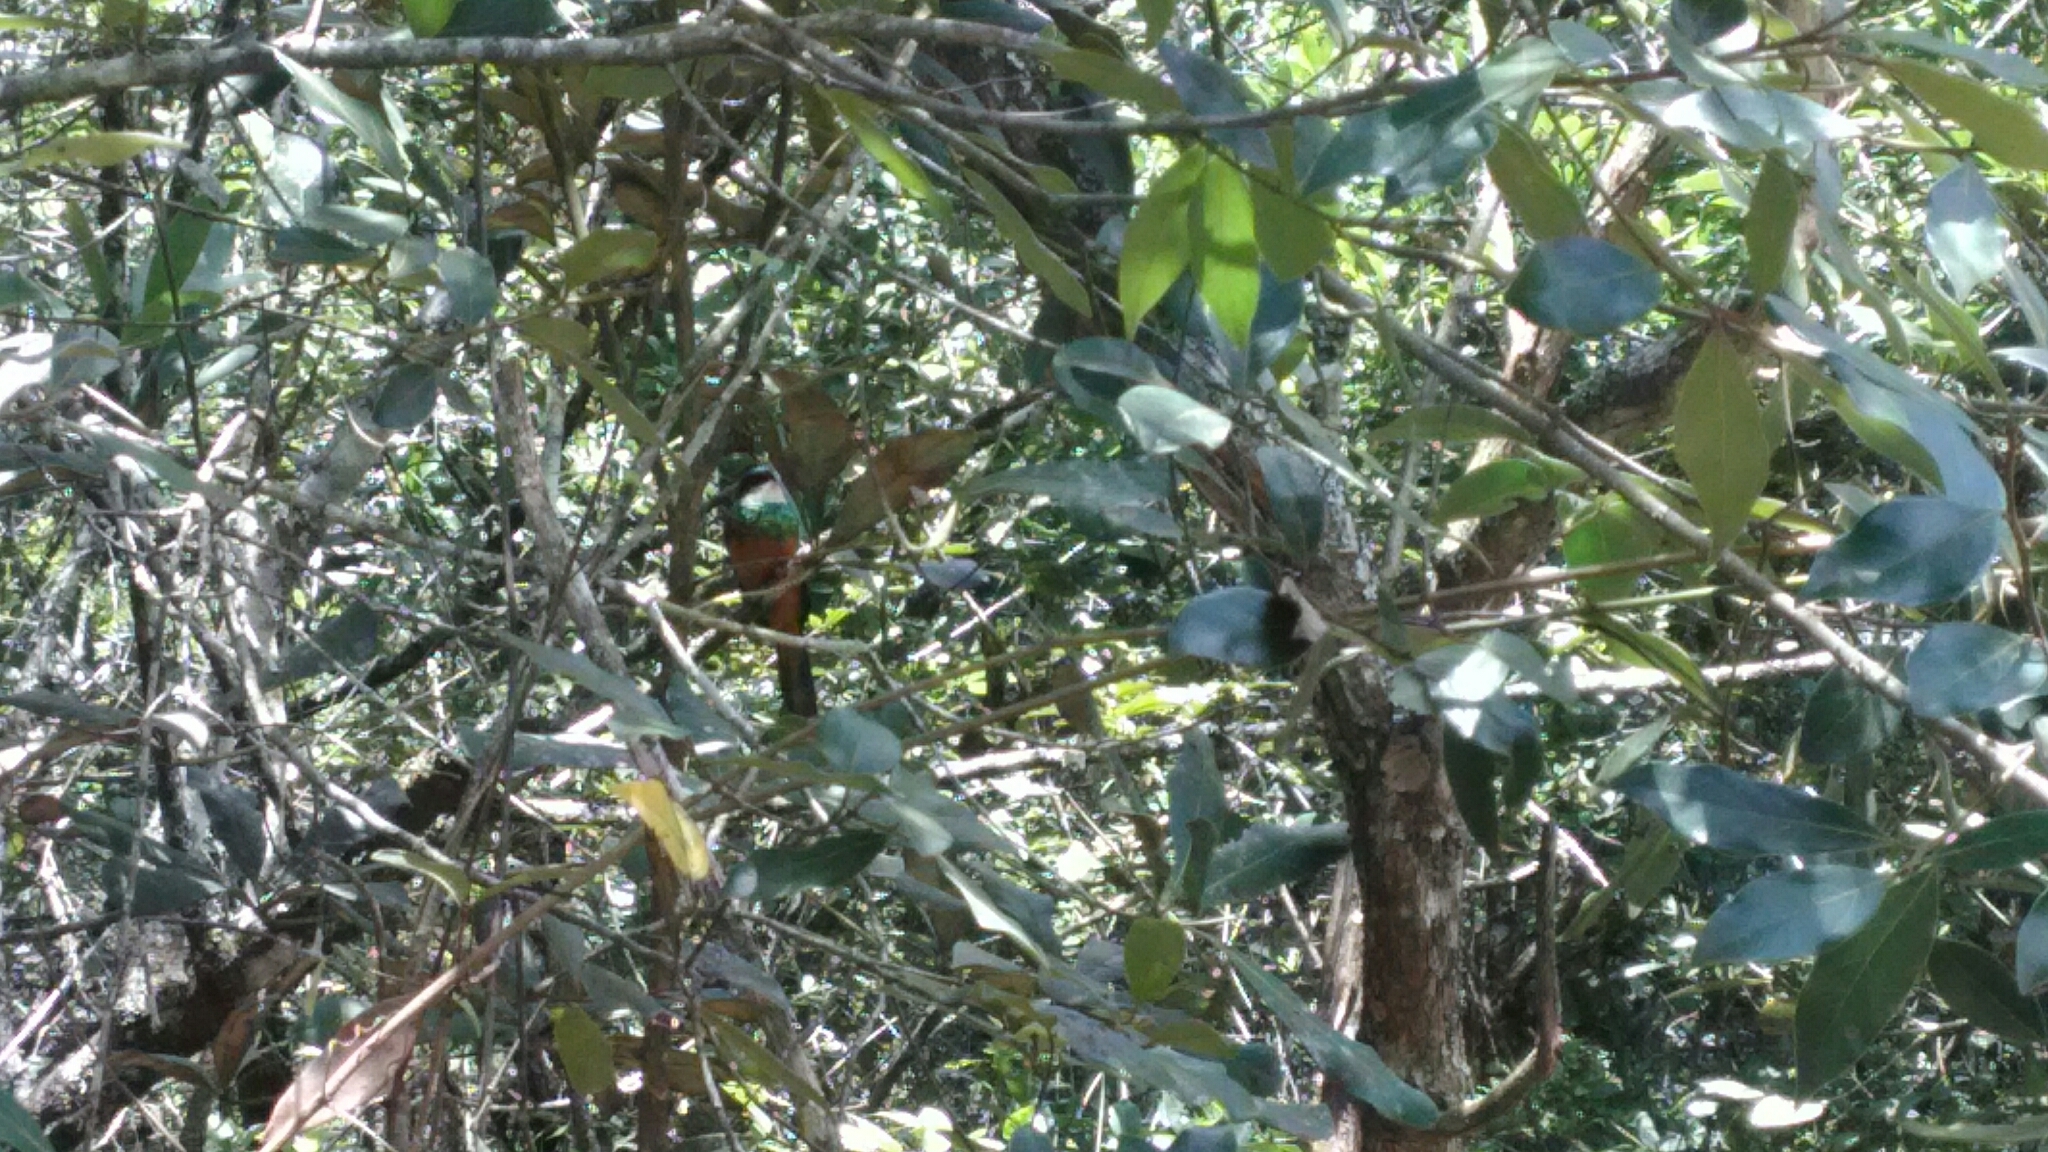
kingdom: Animalia
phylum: Chordata
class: Aves
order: Piciformes
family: Galbulidae
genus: Galbula
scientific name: Galbula ruficauda
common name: Rufous-tailed jacamar
